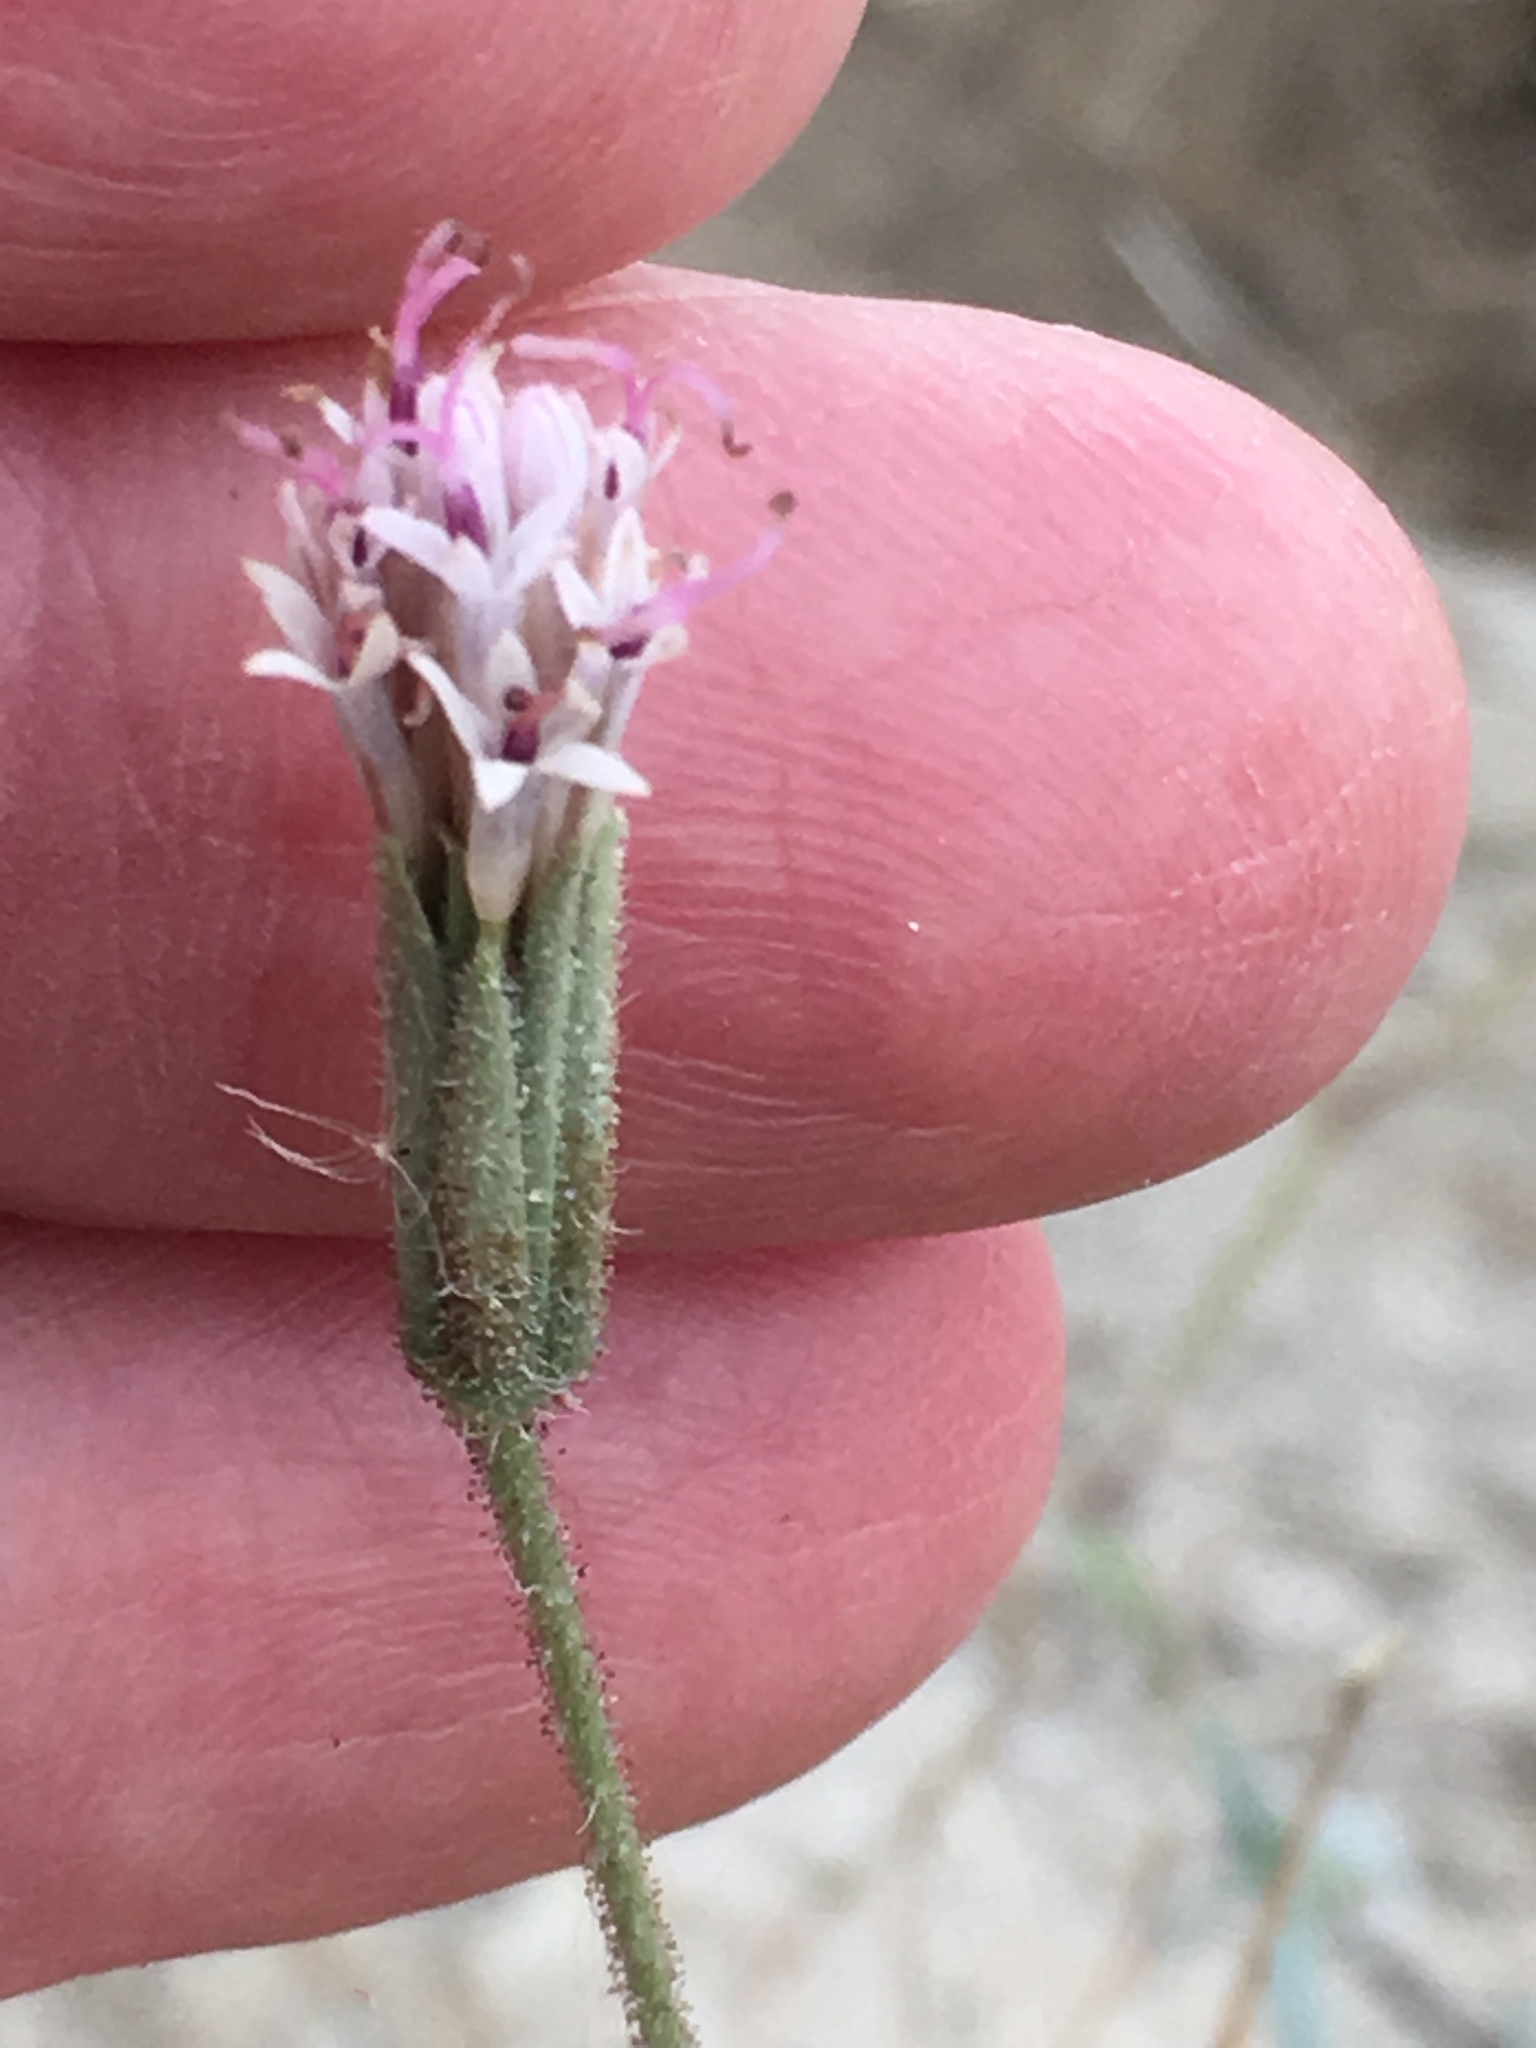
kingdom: Plantae
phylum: Tracheophyta
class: Magnoliopsida
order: Asterales
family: Asteraceae
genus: Palafoxia
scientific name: Palafoxia arida
